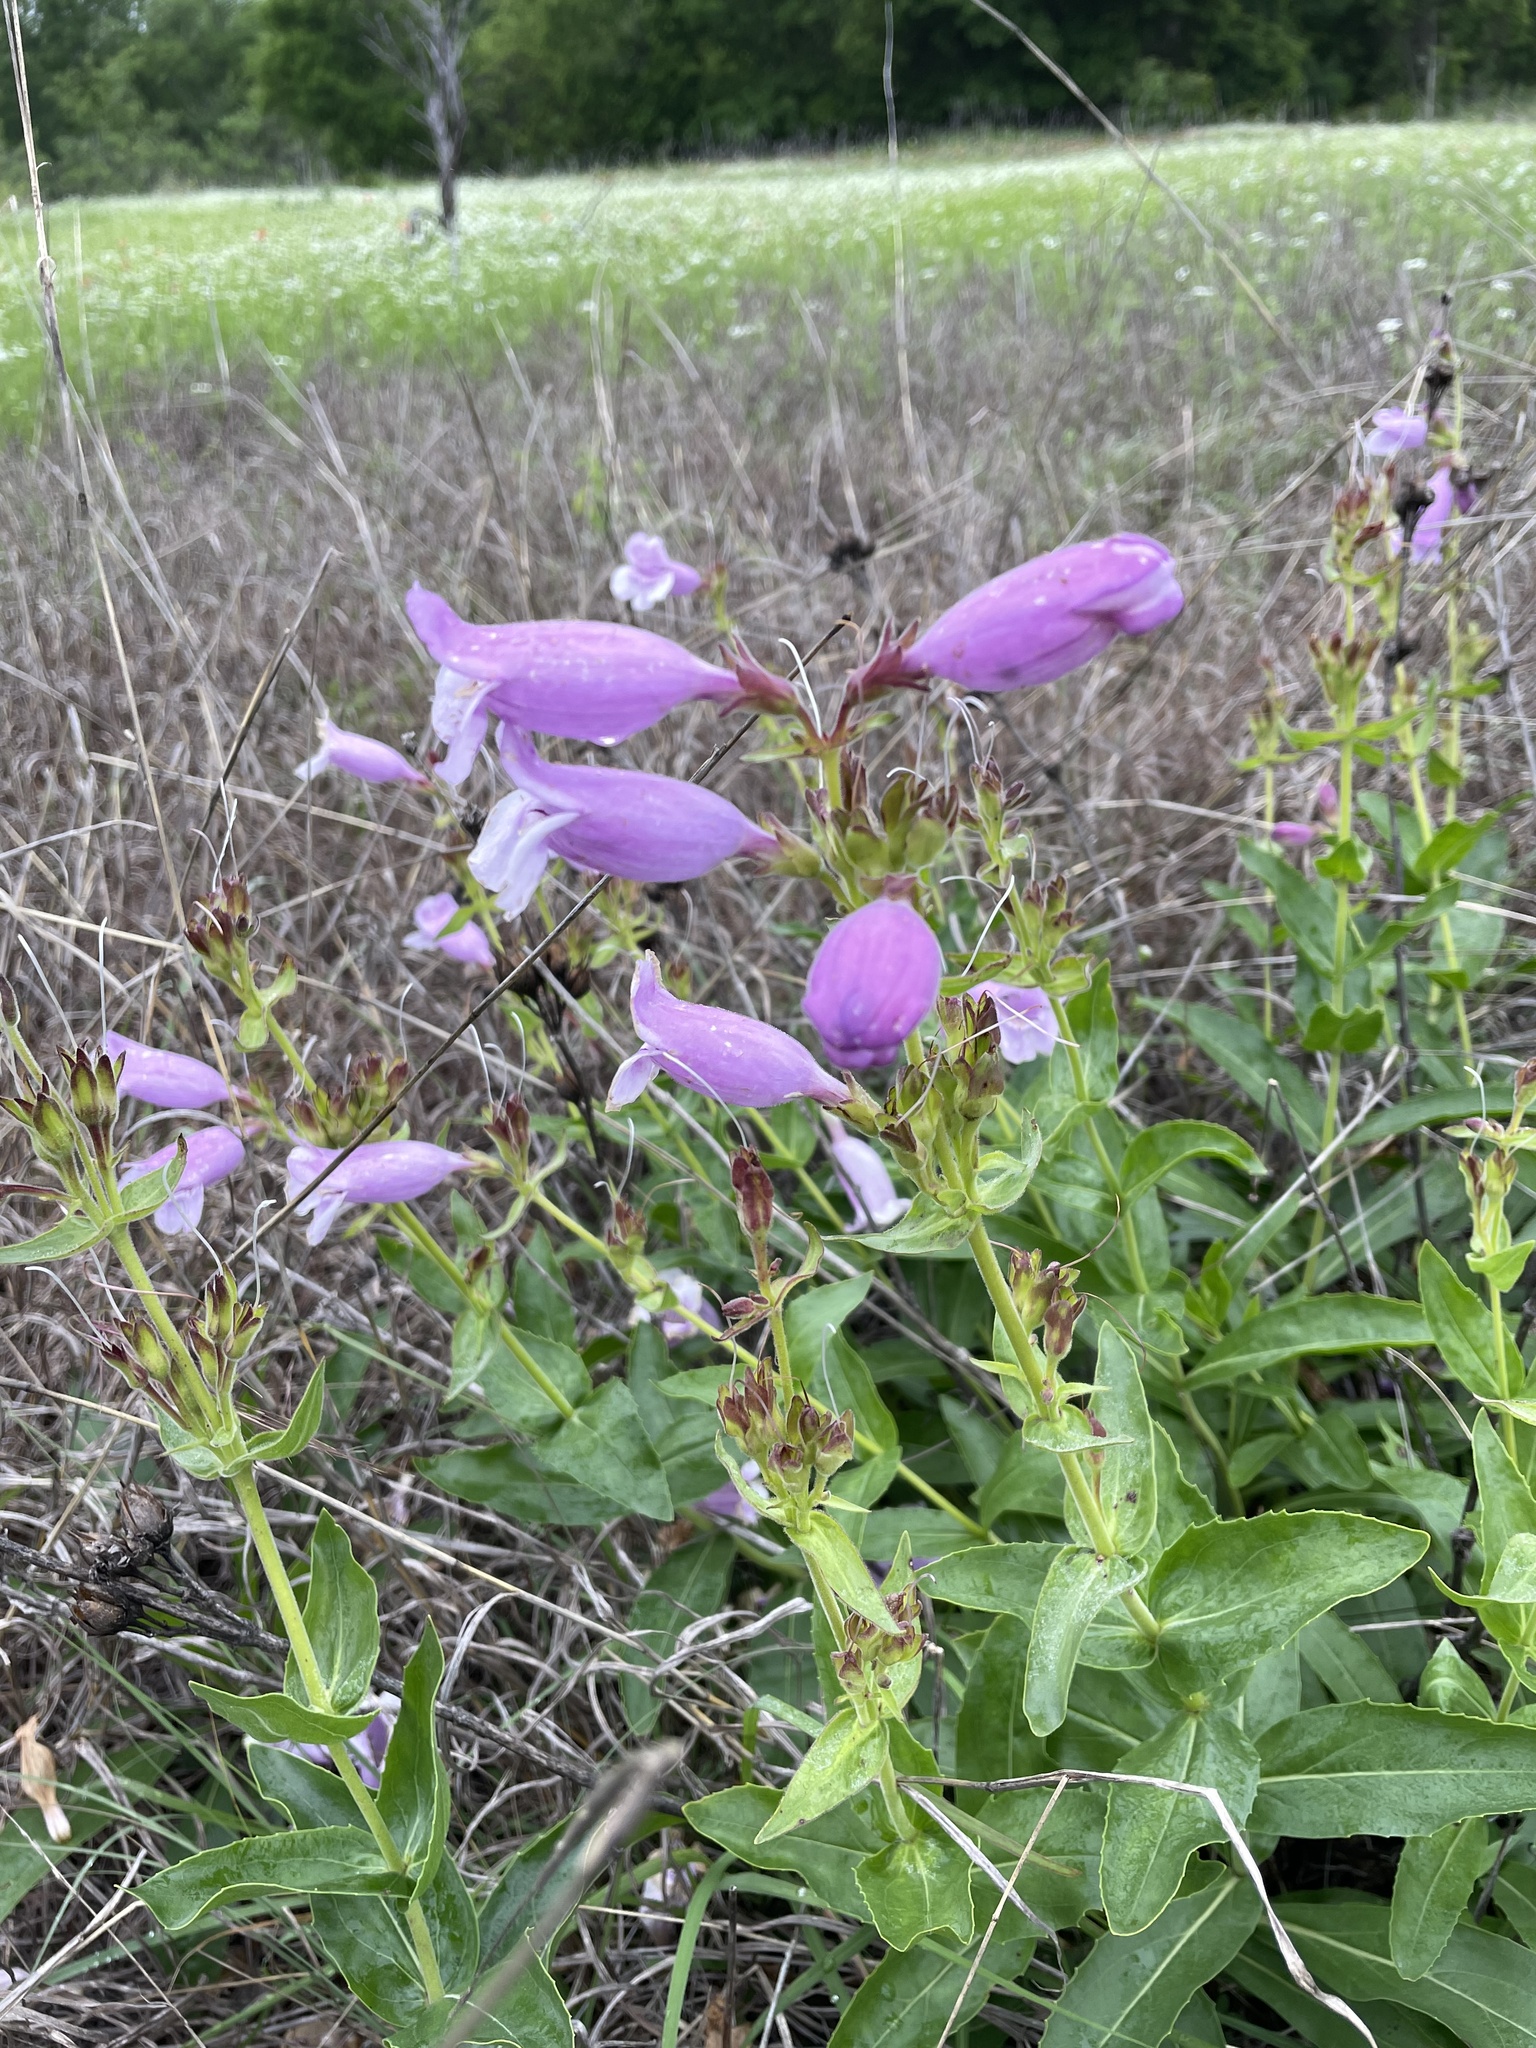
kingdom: Plantae
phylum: Tracheophyta
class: Magnoliopsida
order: Lamiales
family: Plantaginaceae
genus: Penstemon
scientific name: Penstemon cobaea
